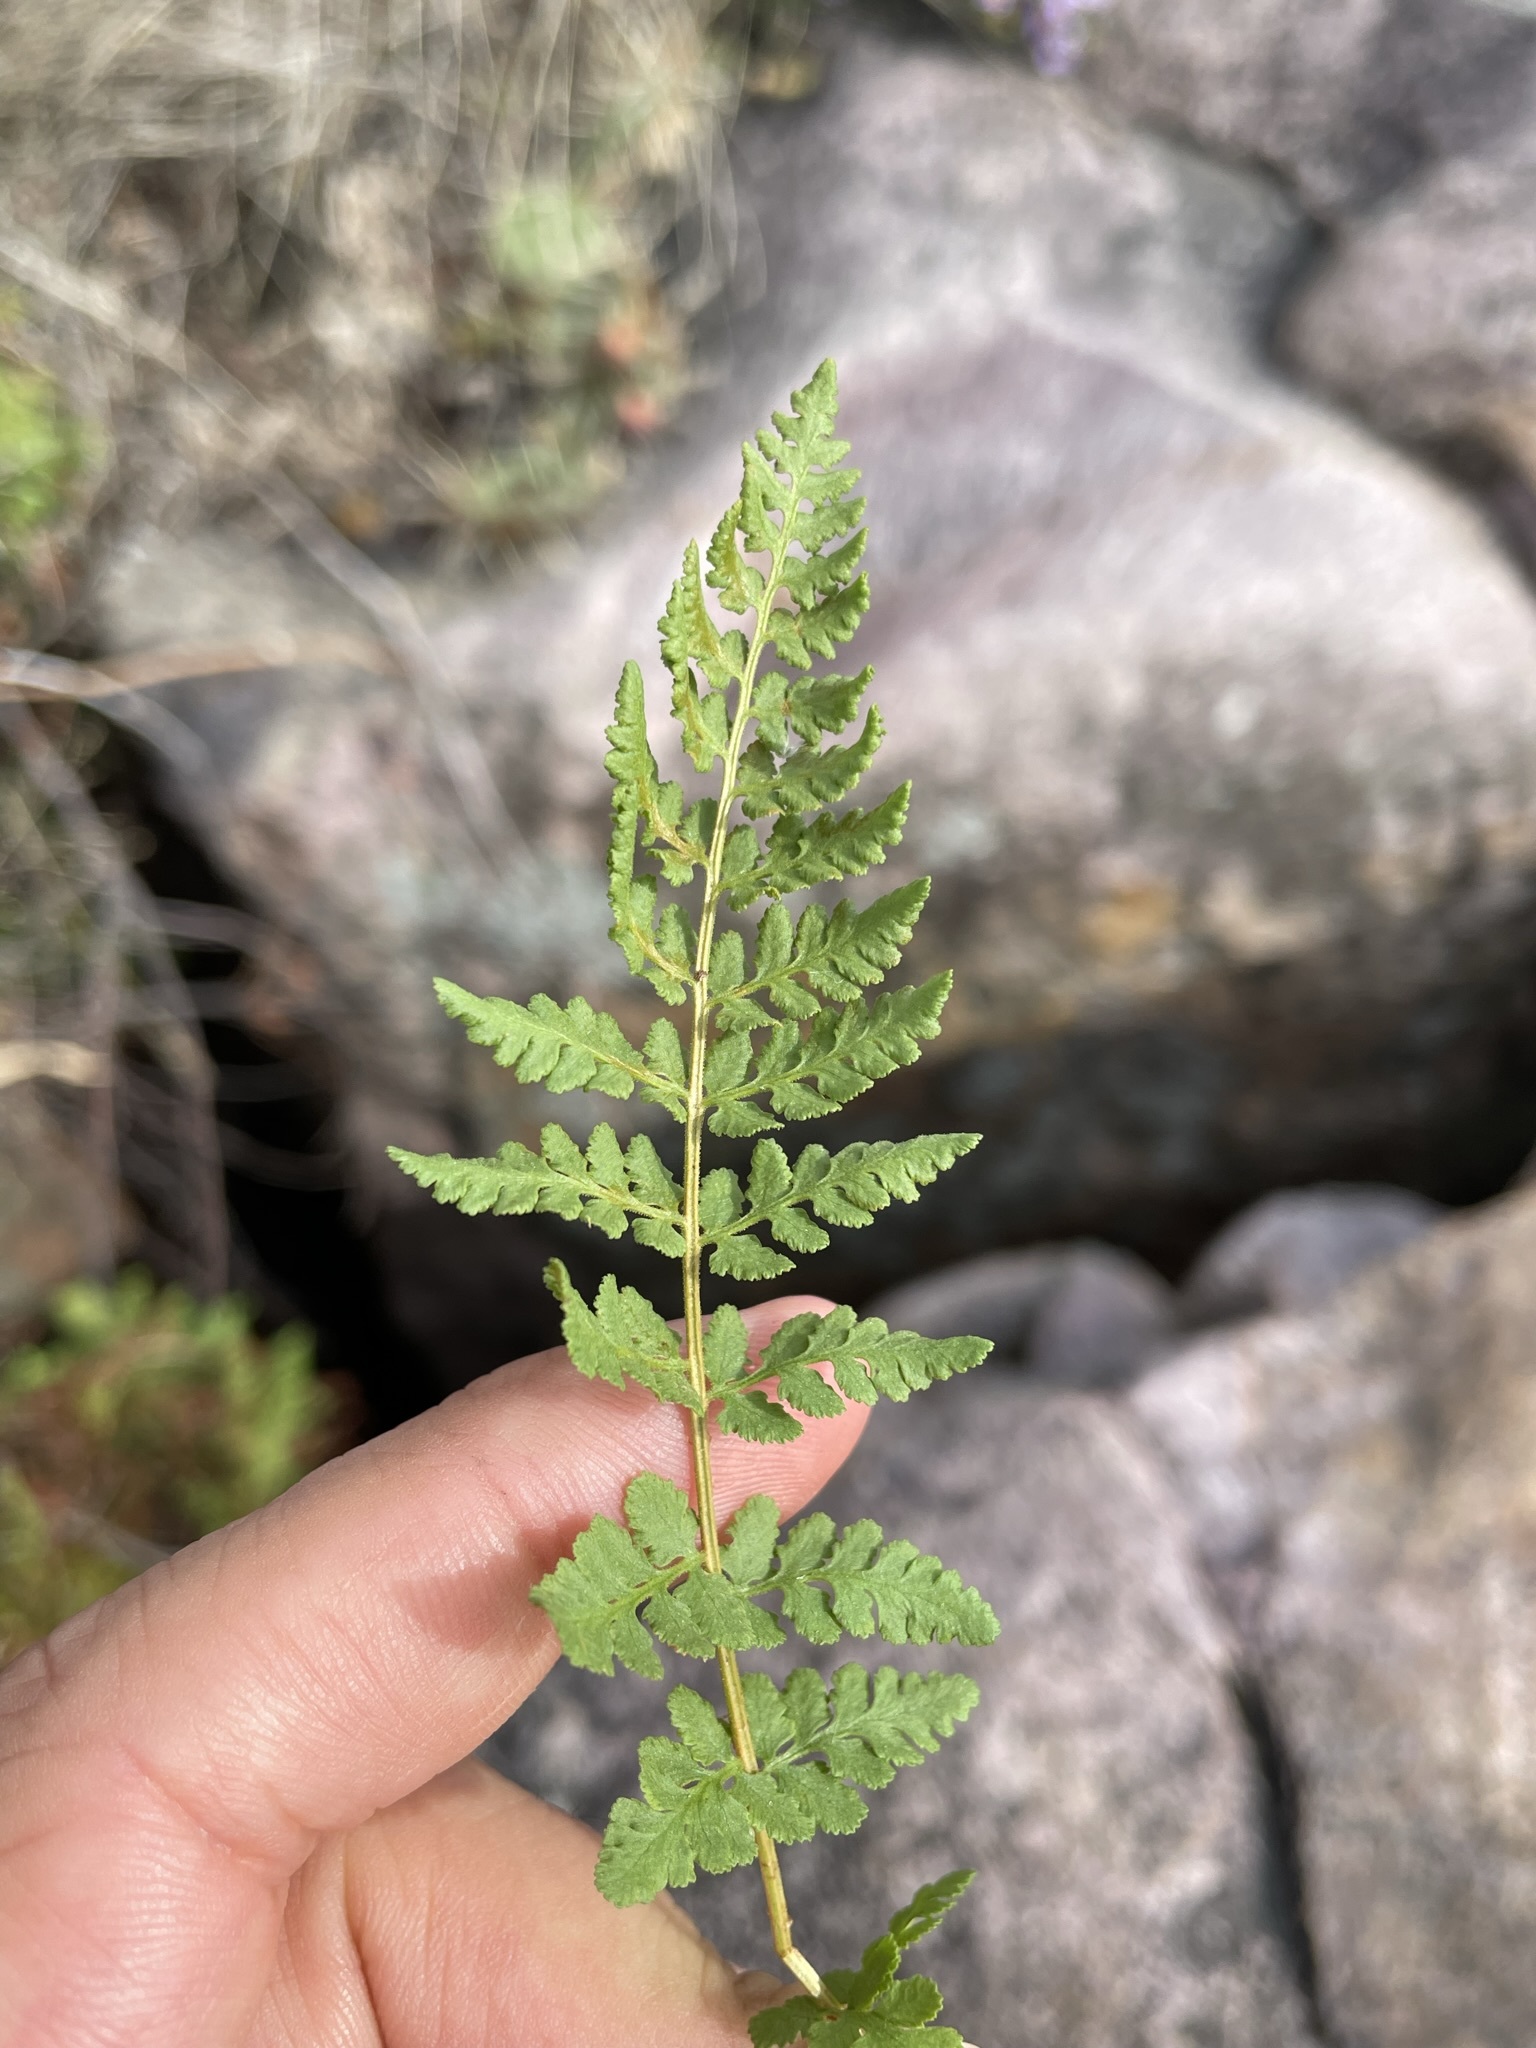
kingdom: Plantae
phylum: Tracheophyta
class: Polypodiopsida
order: Polypodiales
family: Woodsiaceae
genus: Physematium
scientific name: Physematium oreganum
